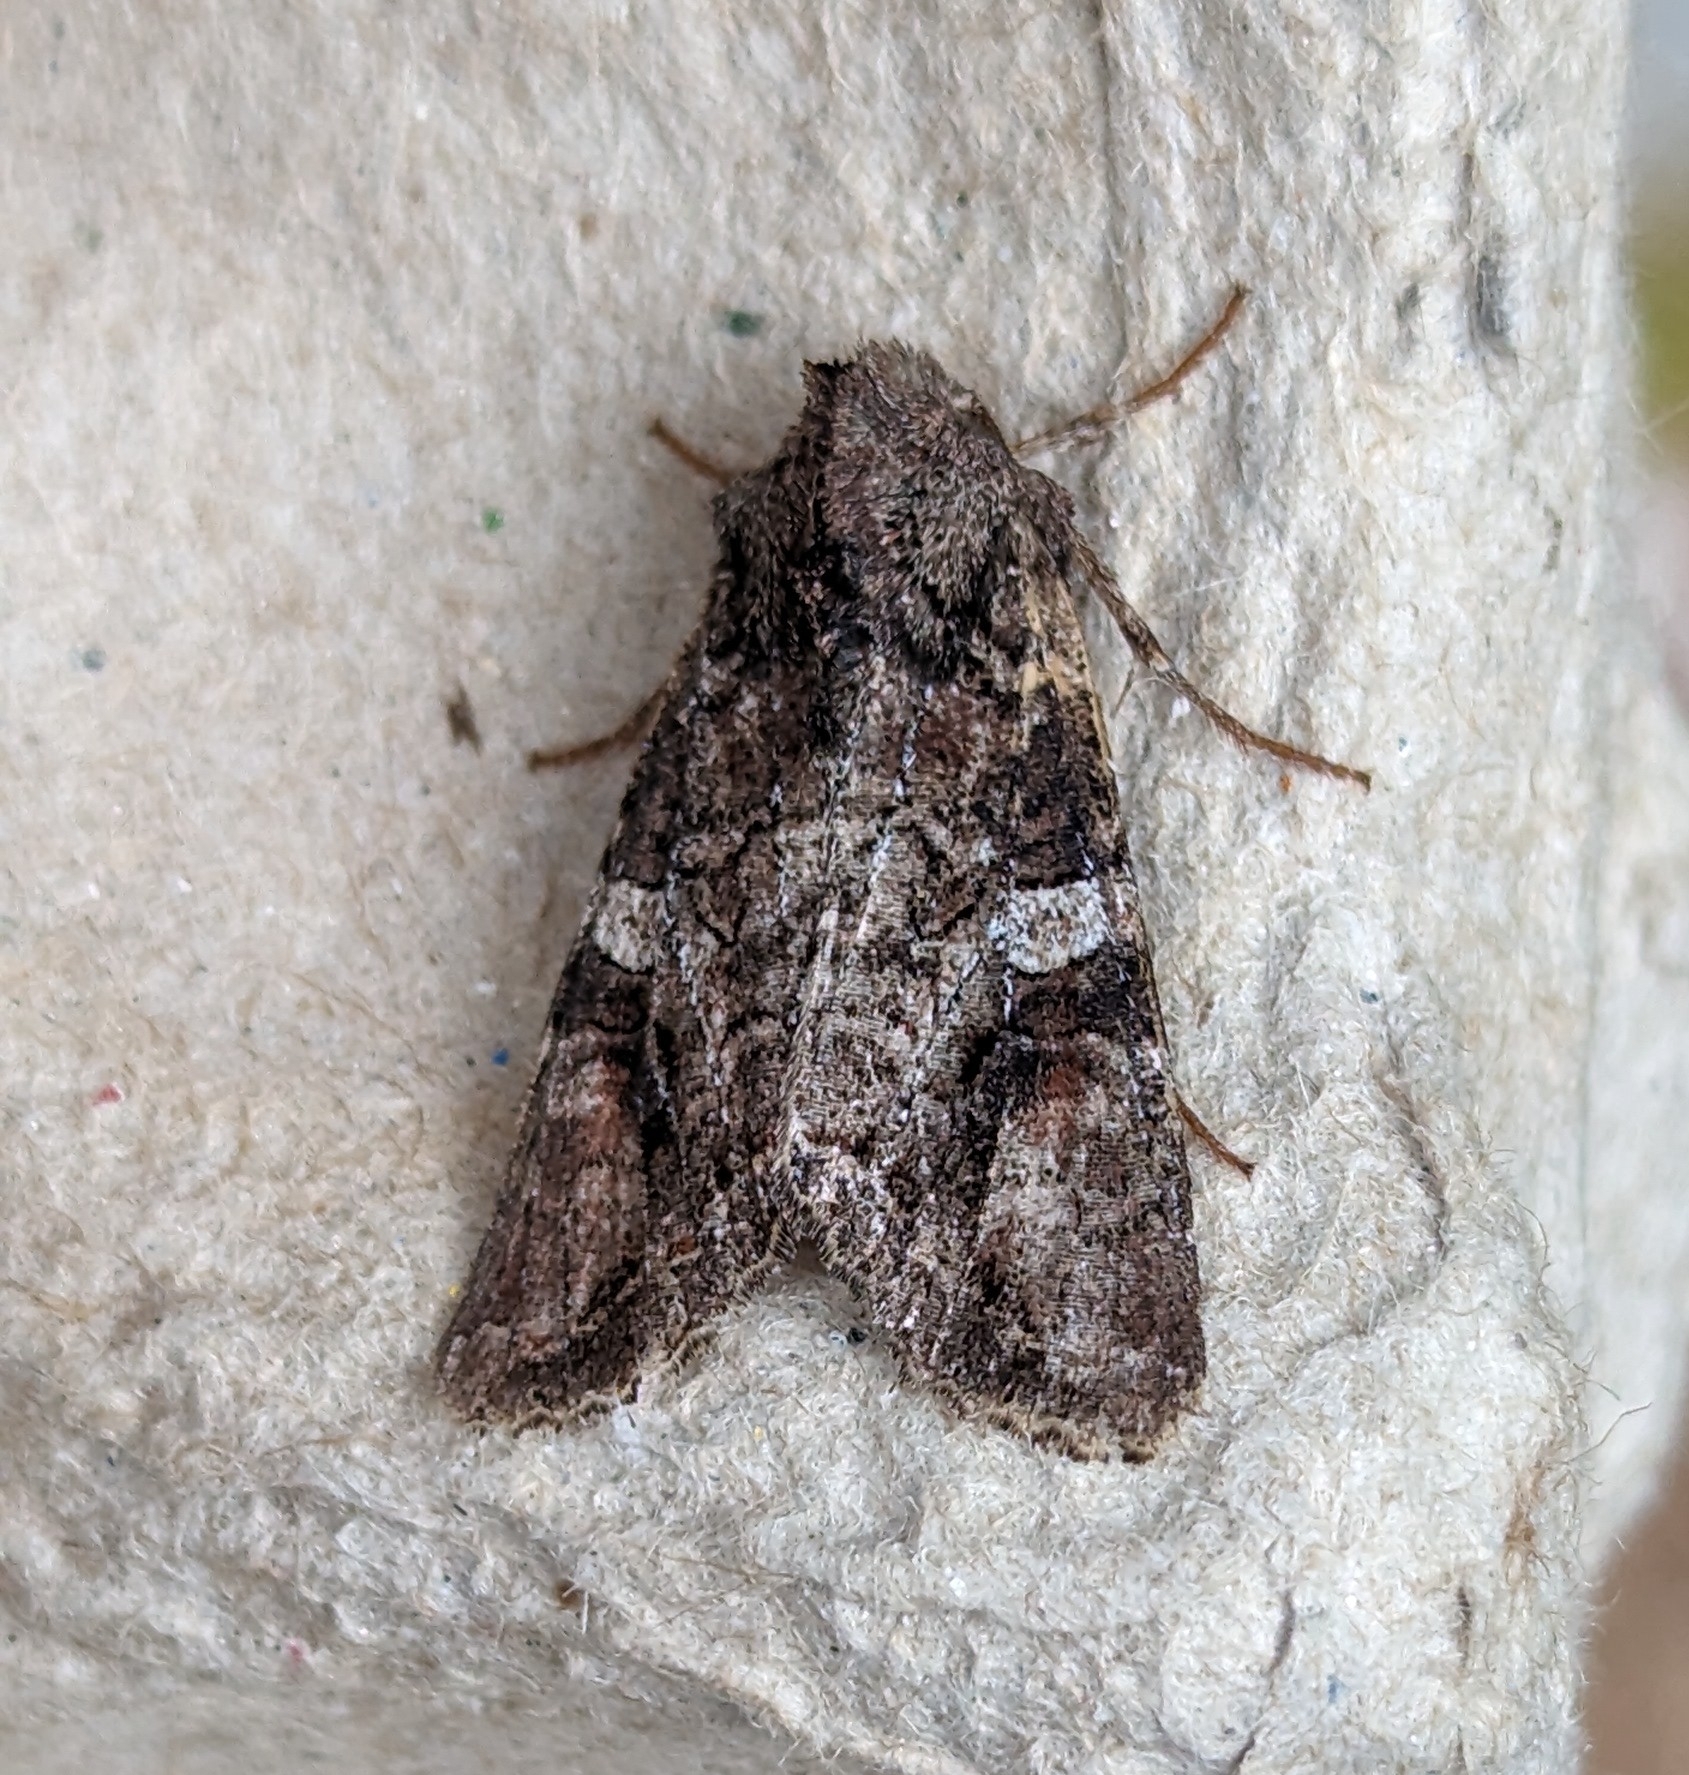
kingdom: Animalia
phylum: Arthropoda
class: Insecta
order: Lepidoptera
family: Noctuidae
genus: Egira
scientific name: Egira perlubens
